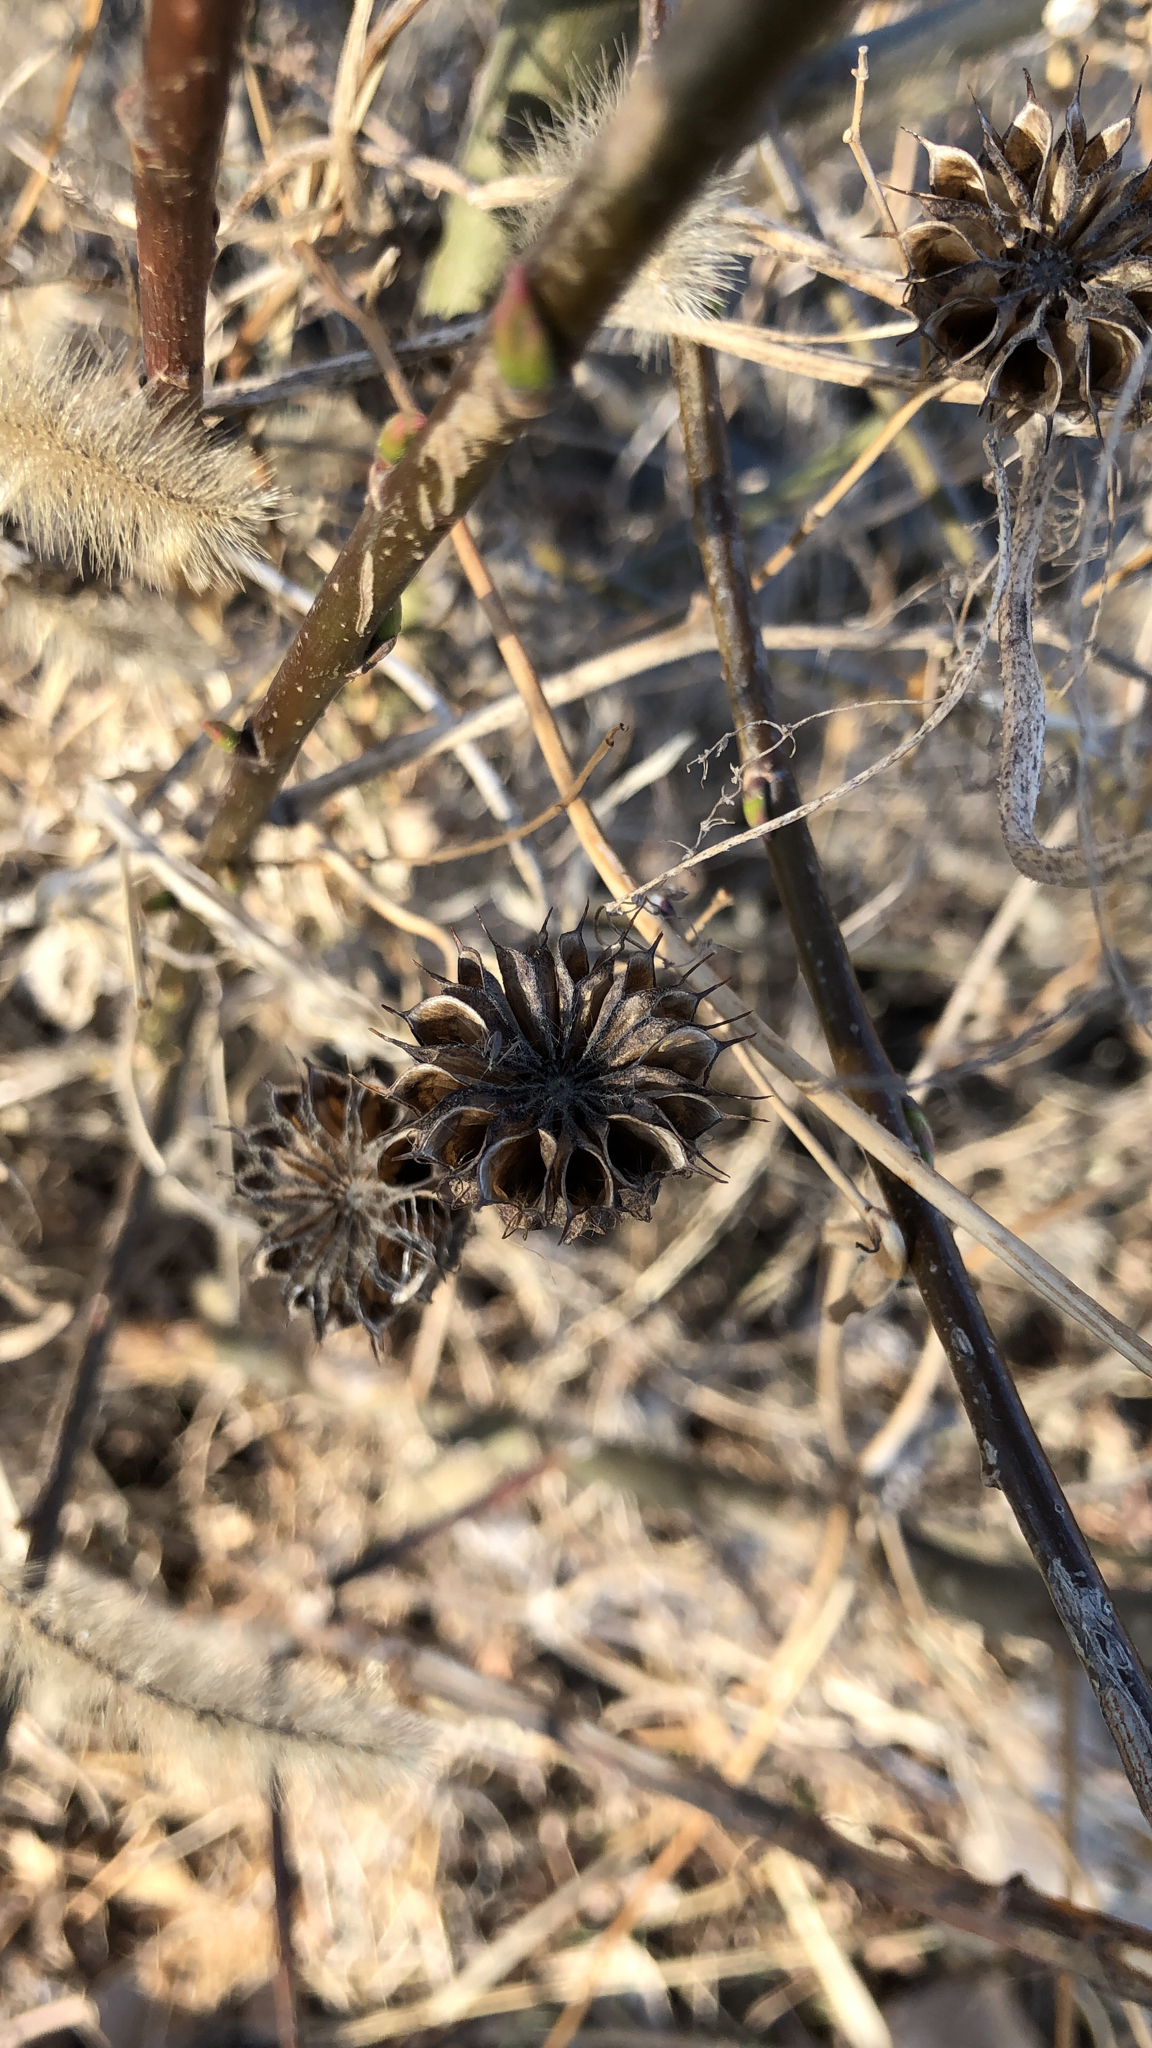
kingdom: Plantae
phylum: Tracheophyta
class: Magnoliopsida
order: Malvales
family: Malvaceae
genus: Abutilon
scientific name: Abutilon theophrasti
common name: Velvetleaf
